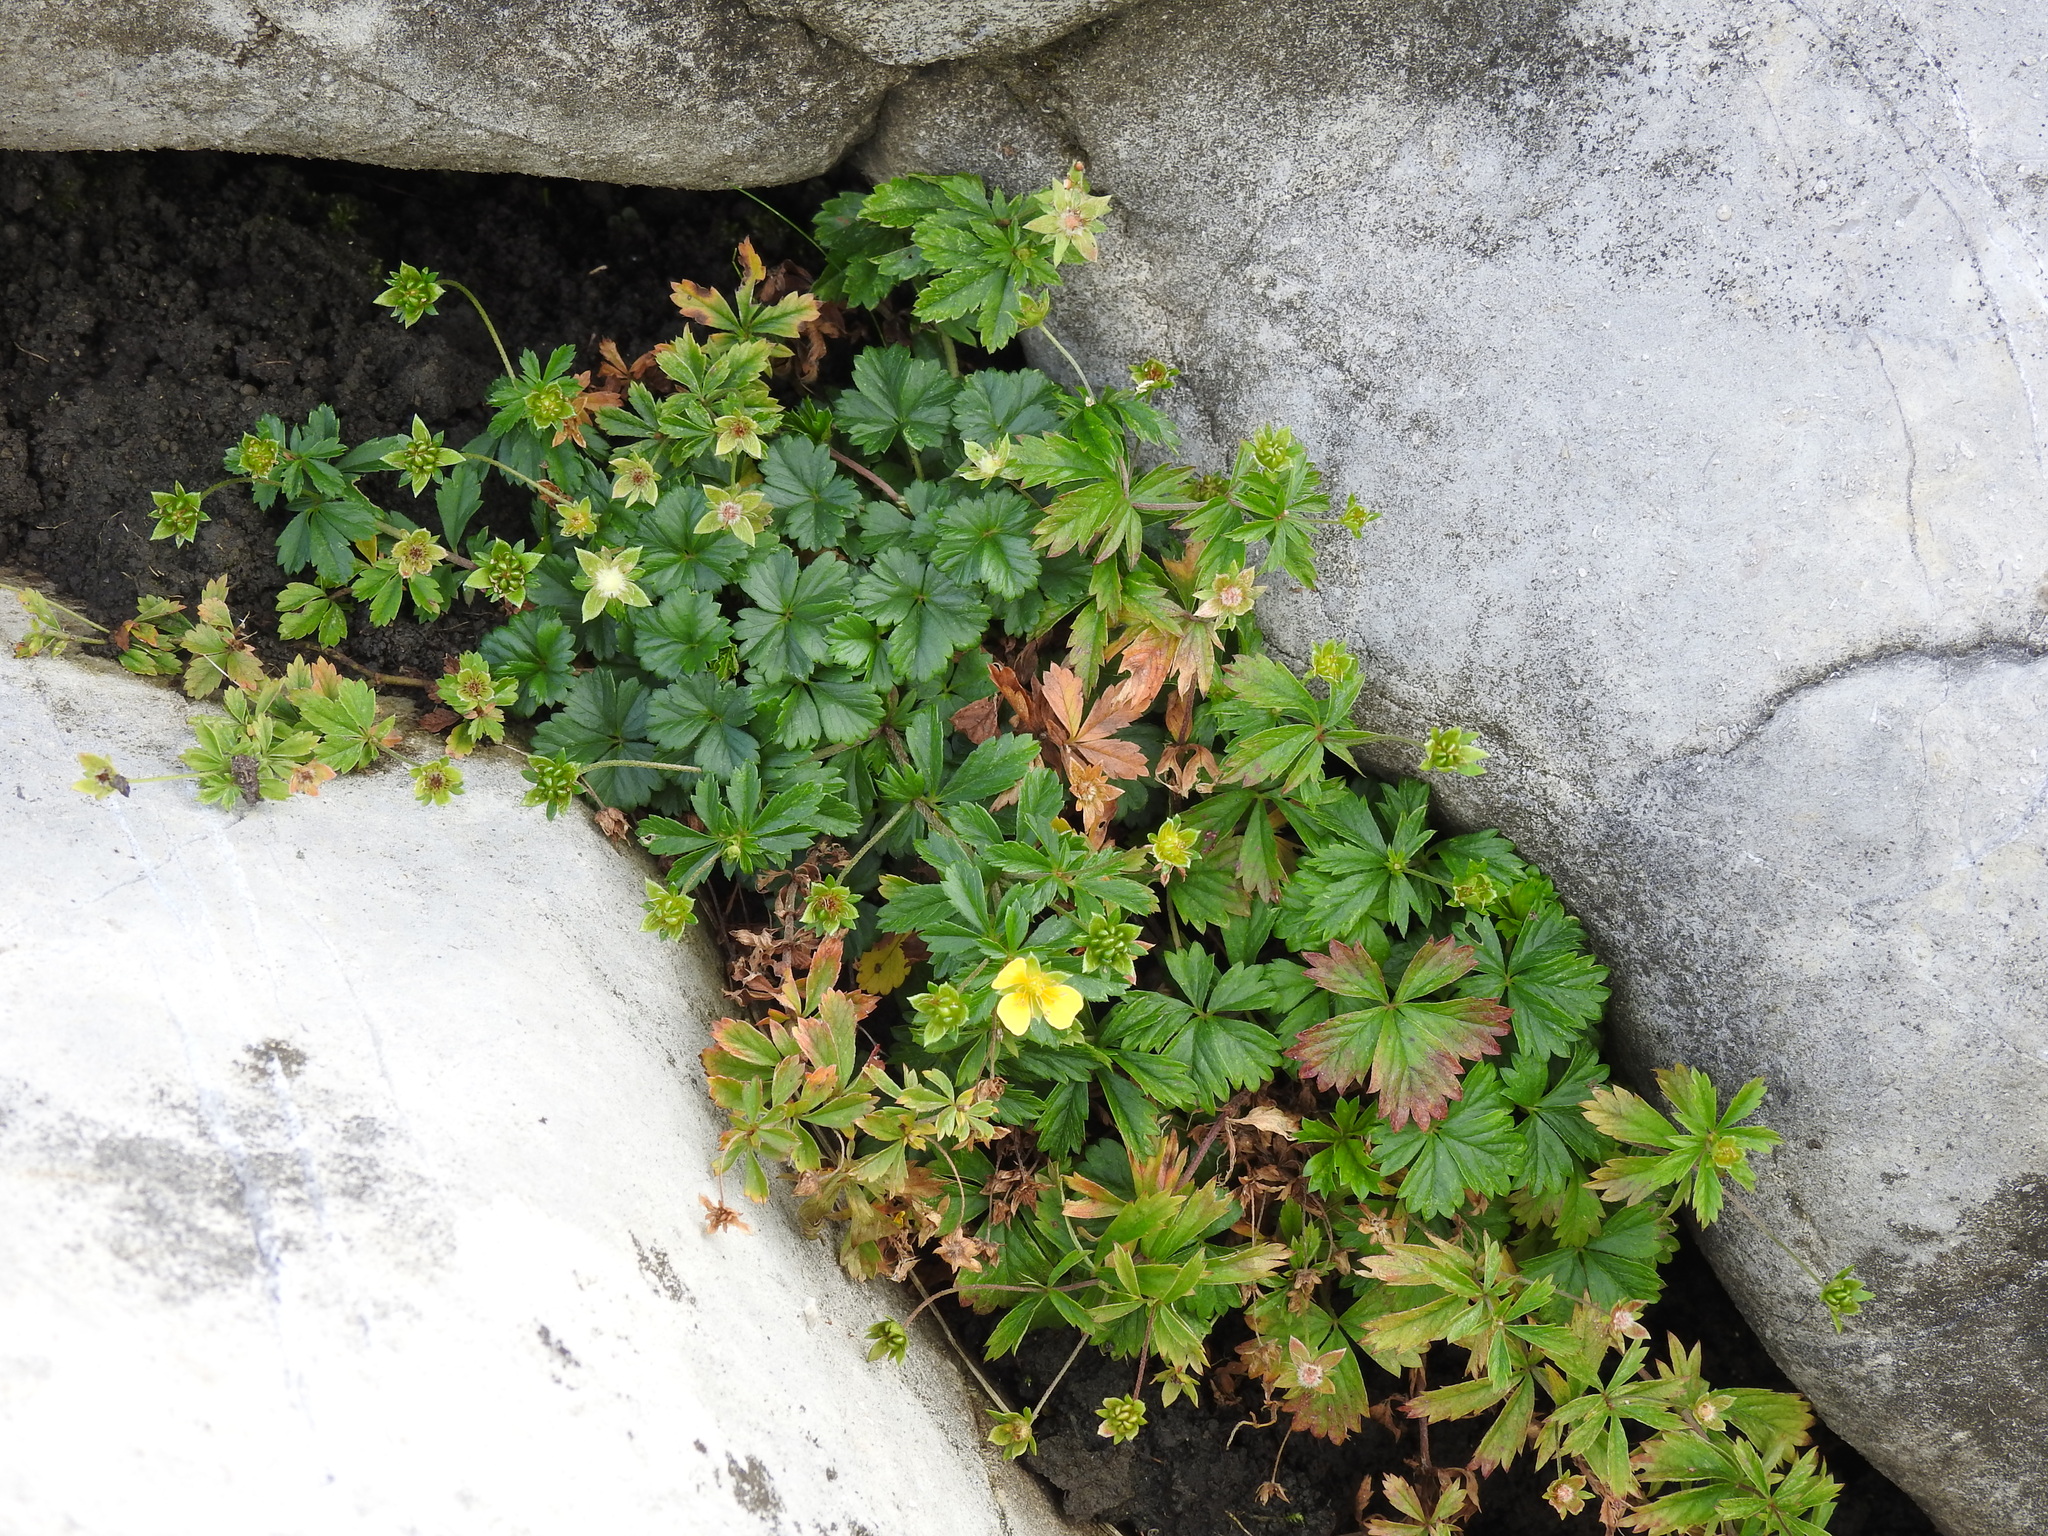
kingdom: Plantae
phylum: Tracheophyta
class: Magnoliopsida
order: Rosales
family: Rosaceae
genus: Potentilla
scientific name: Potentilla erecta
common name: Tormentil
